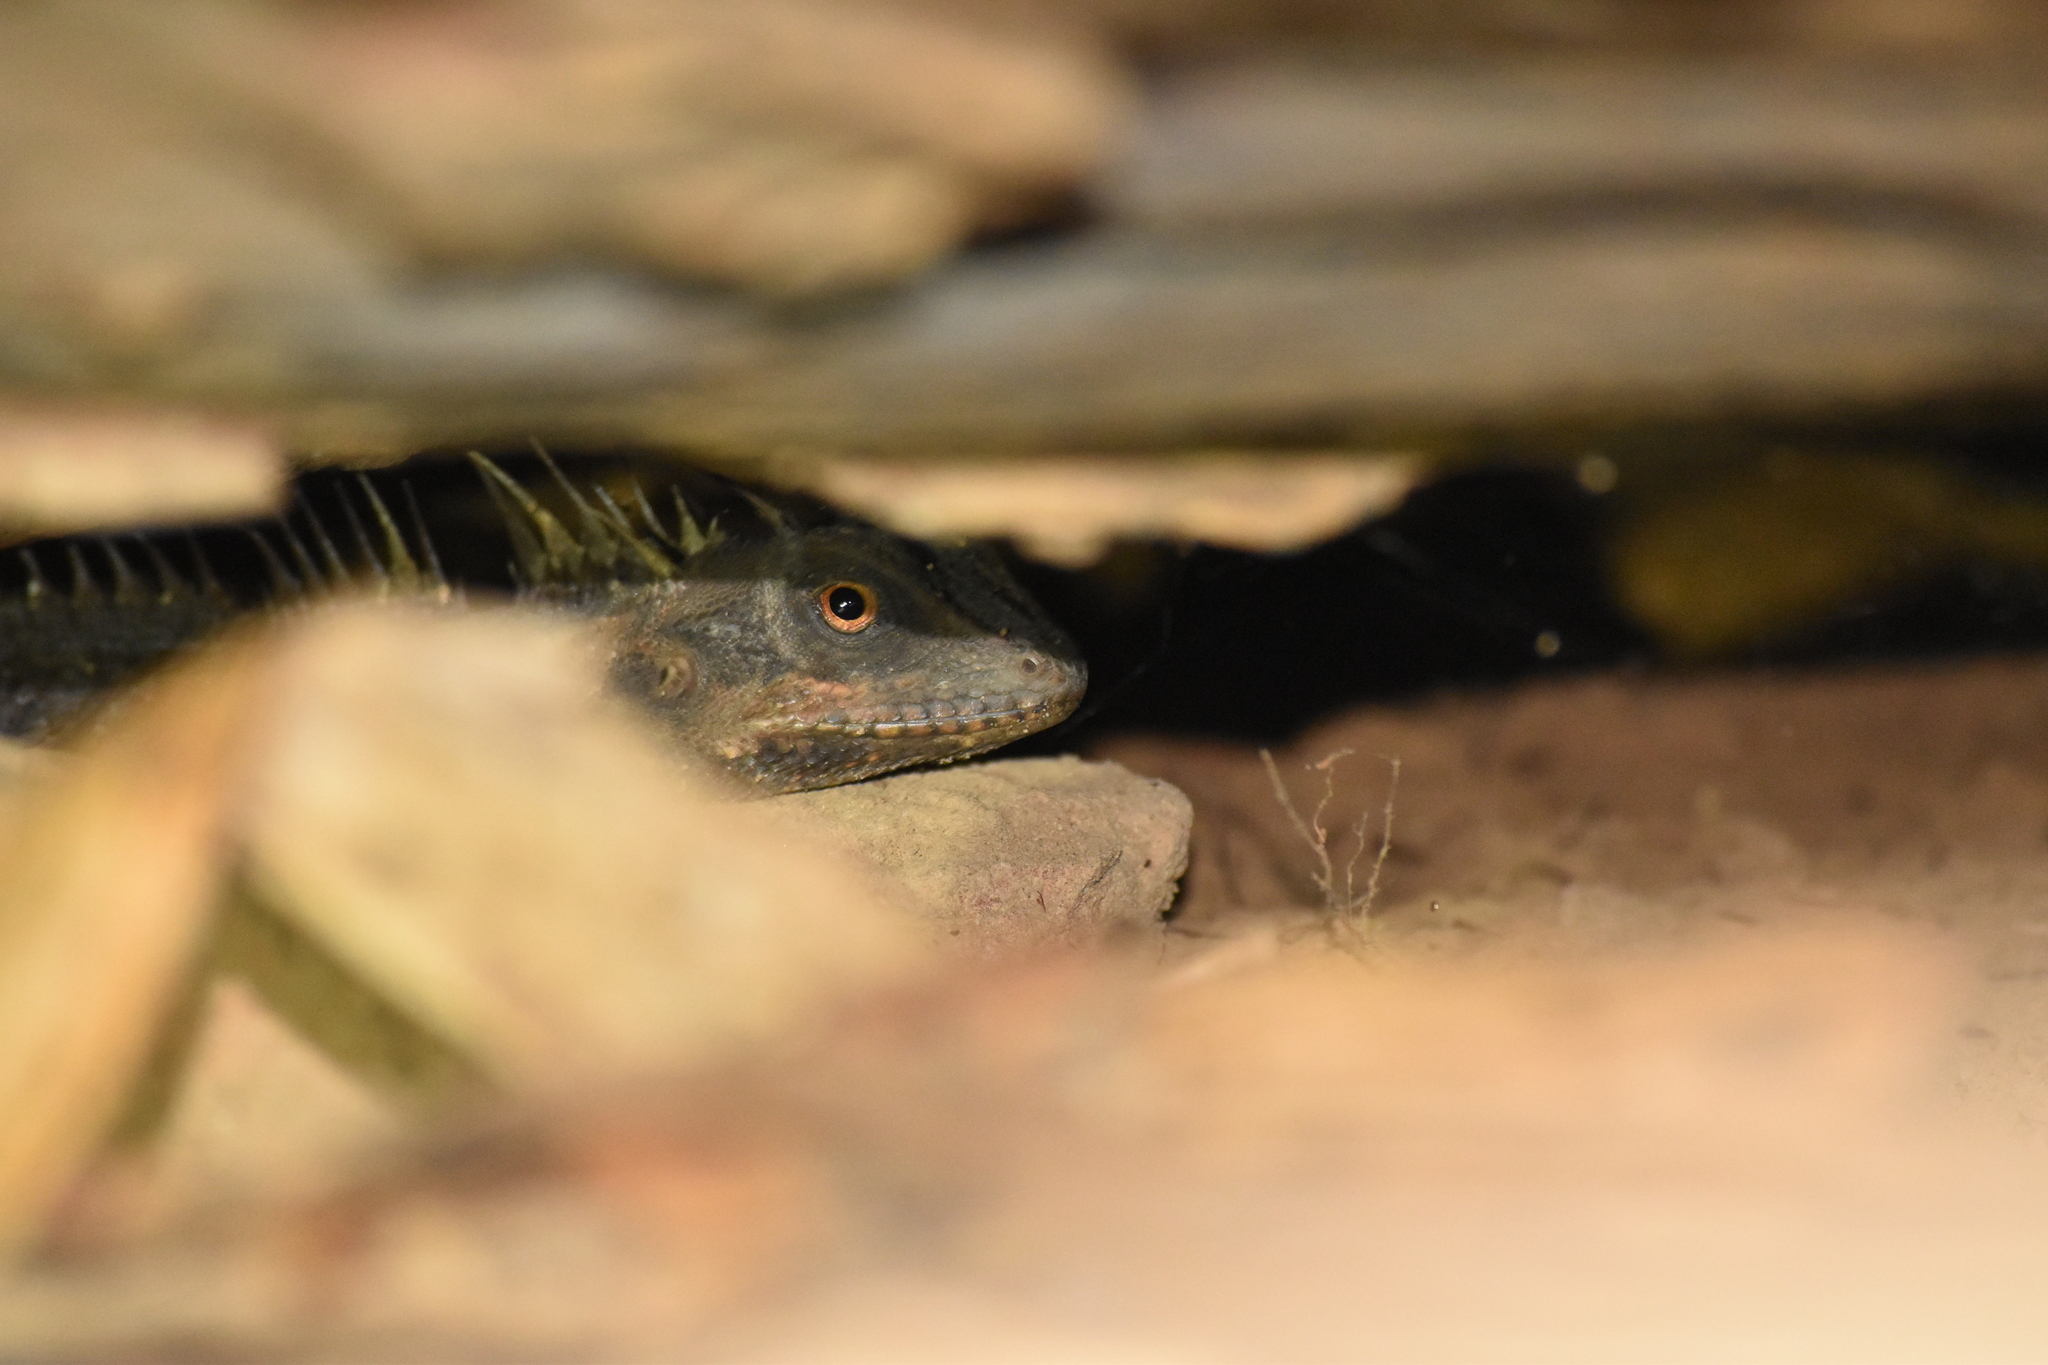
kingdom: Animalia
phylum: Chordata
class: Squamata
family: Agamidae
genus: Acanthosaura
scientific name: Acanthosaura cardamomensis
